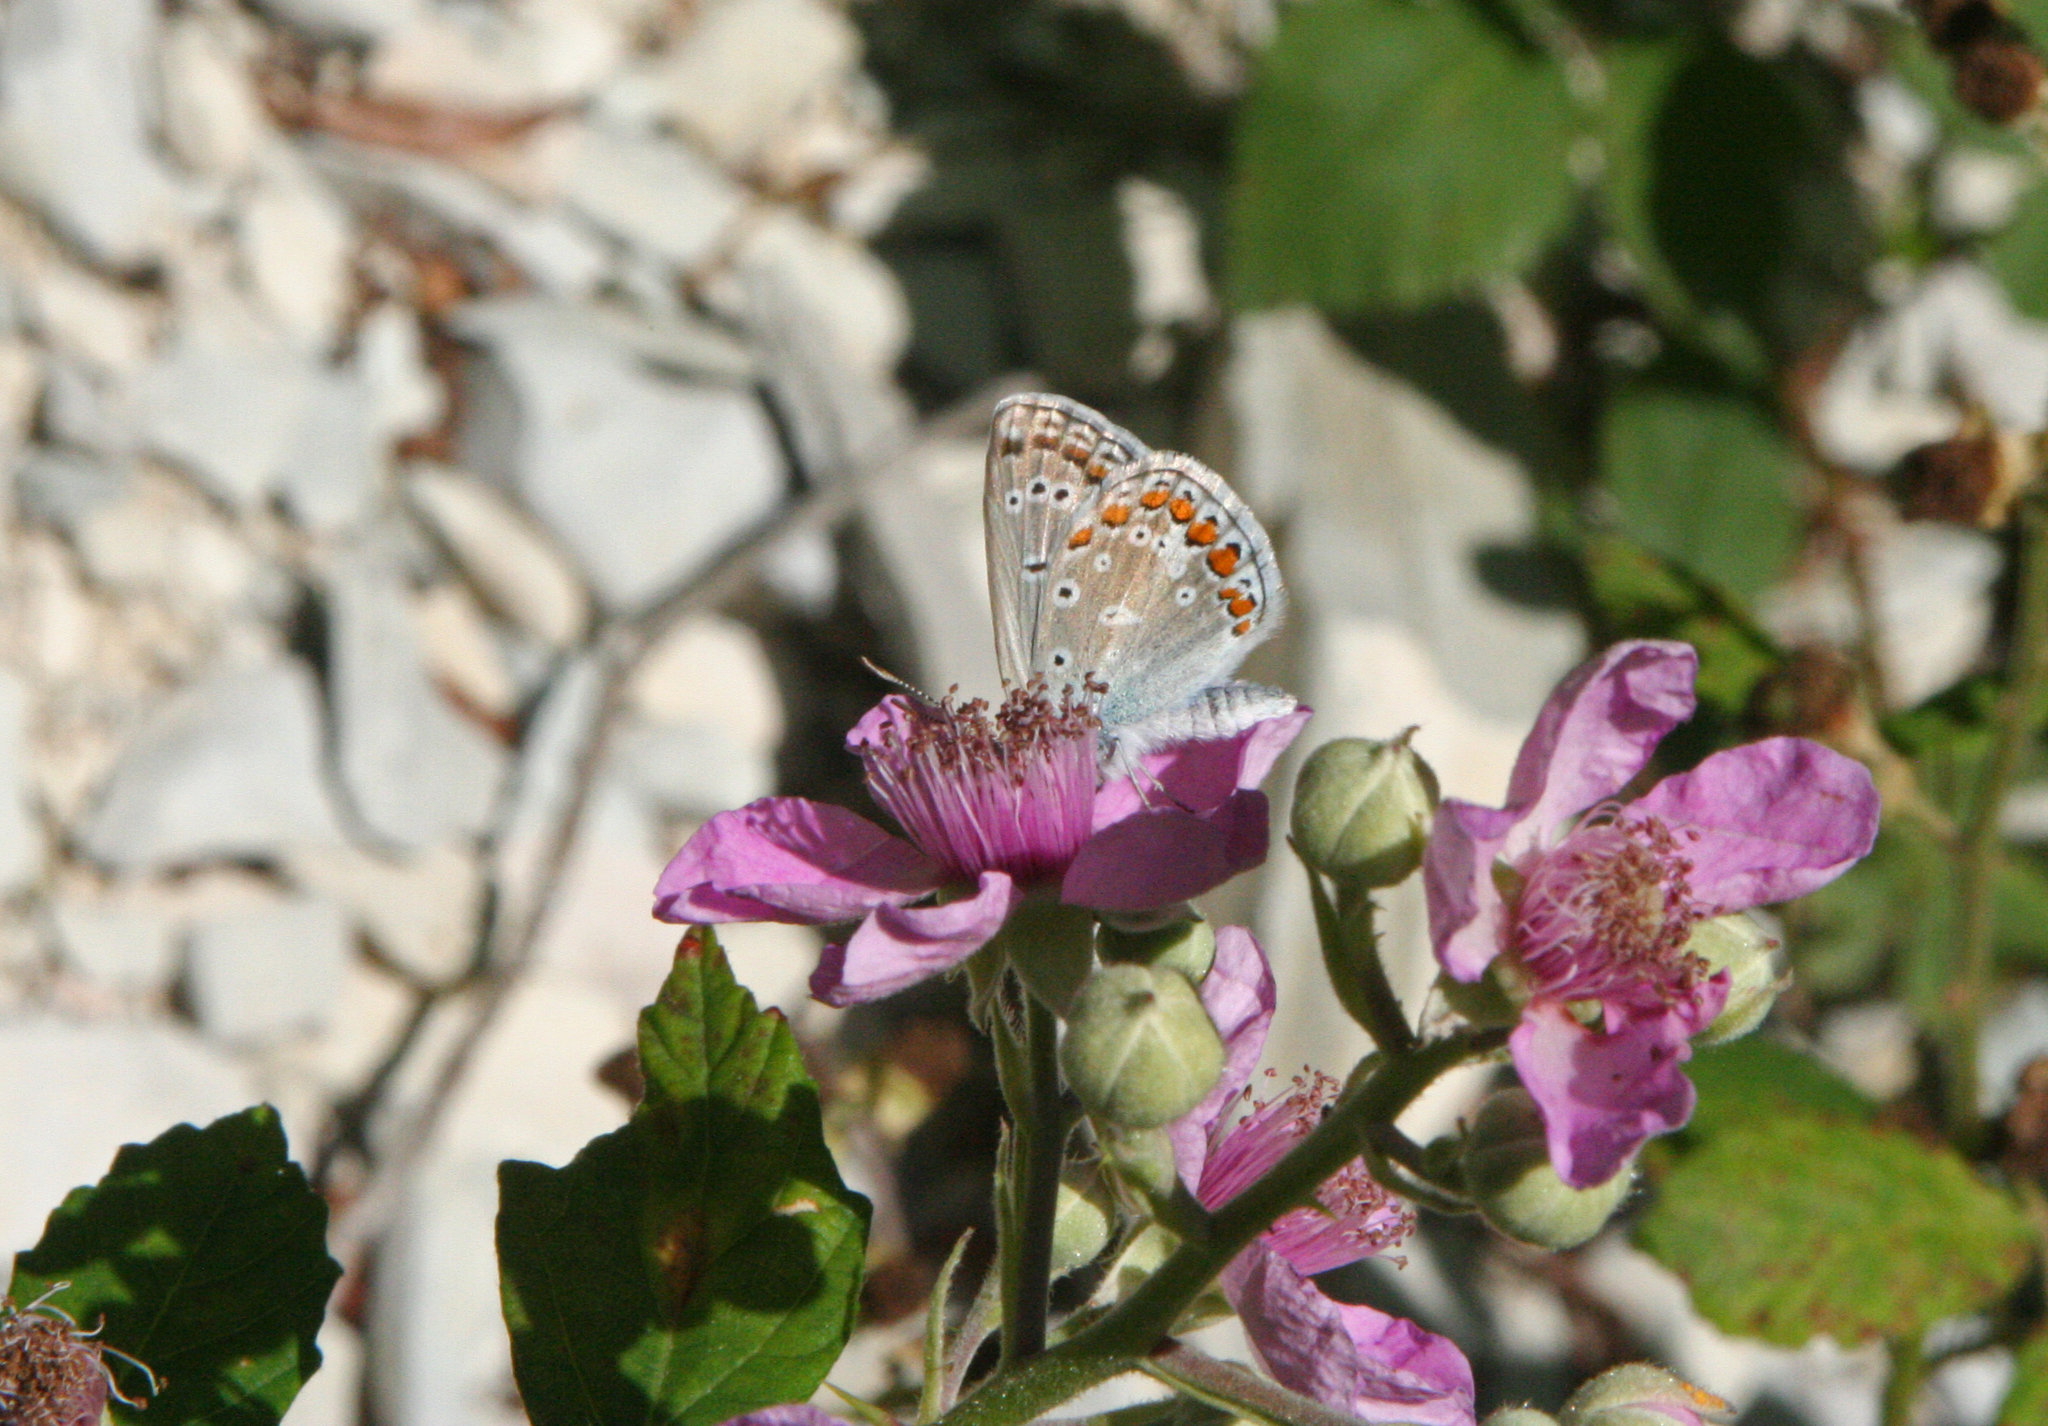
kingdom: Plantae
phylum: Tracheophyta
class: Magnoliopsida
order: Rosales
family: Rosaceae
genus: Rubus
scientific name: Rubus sanctus
